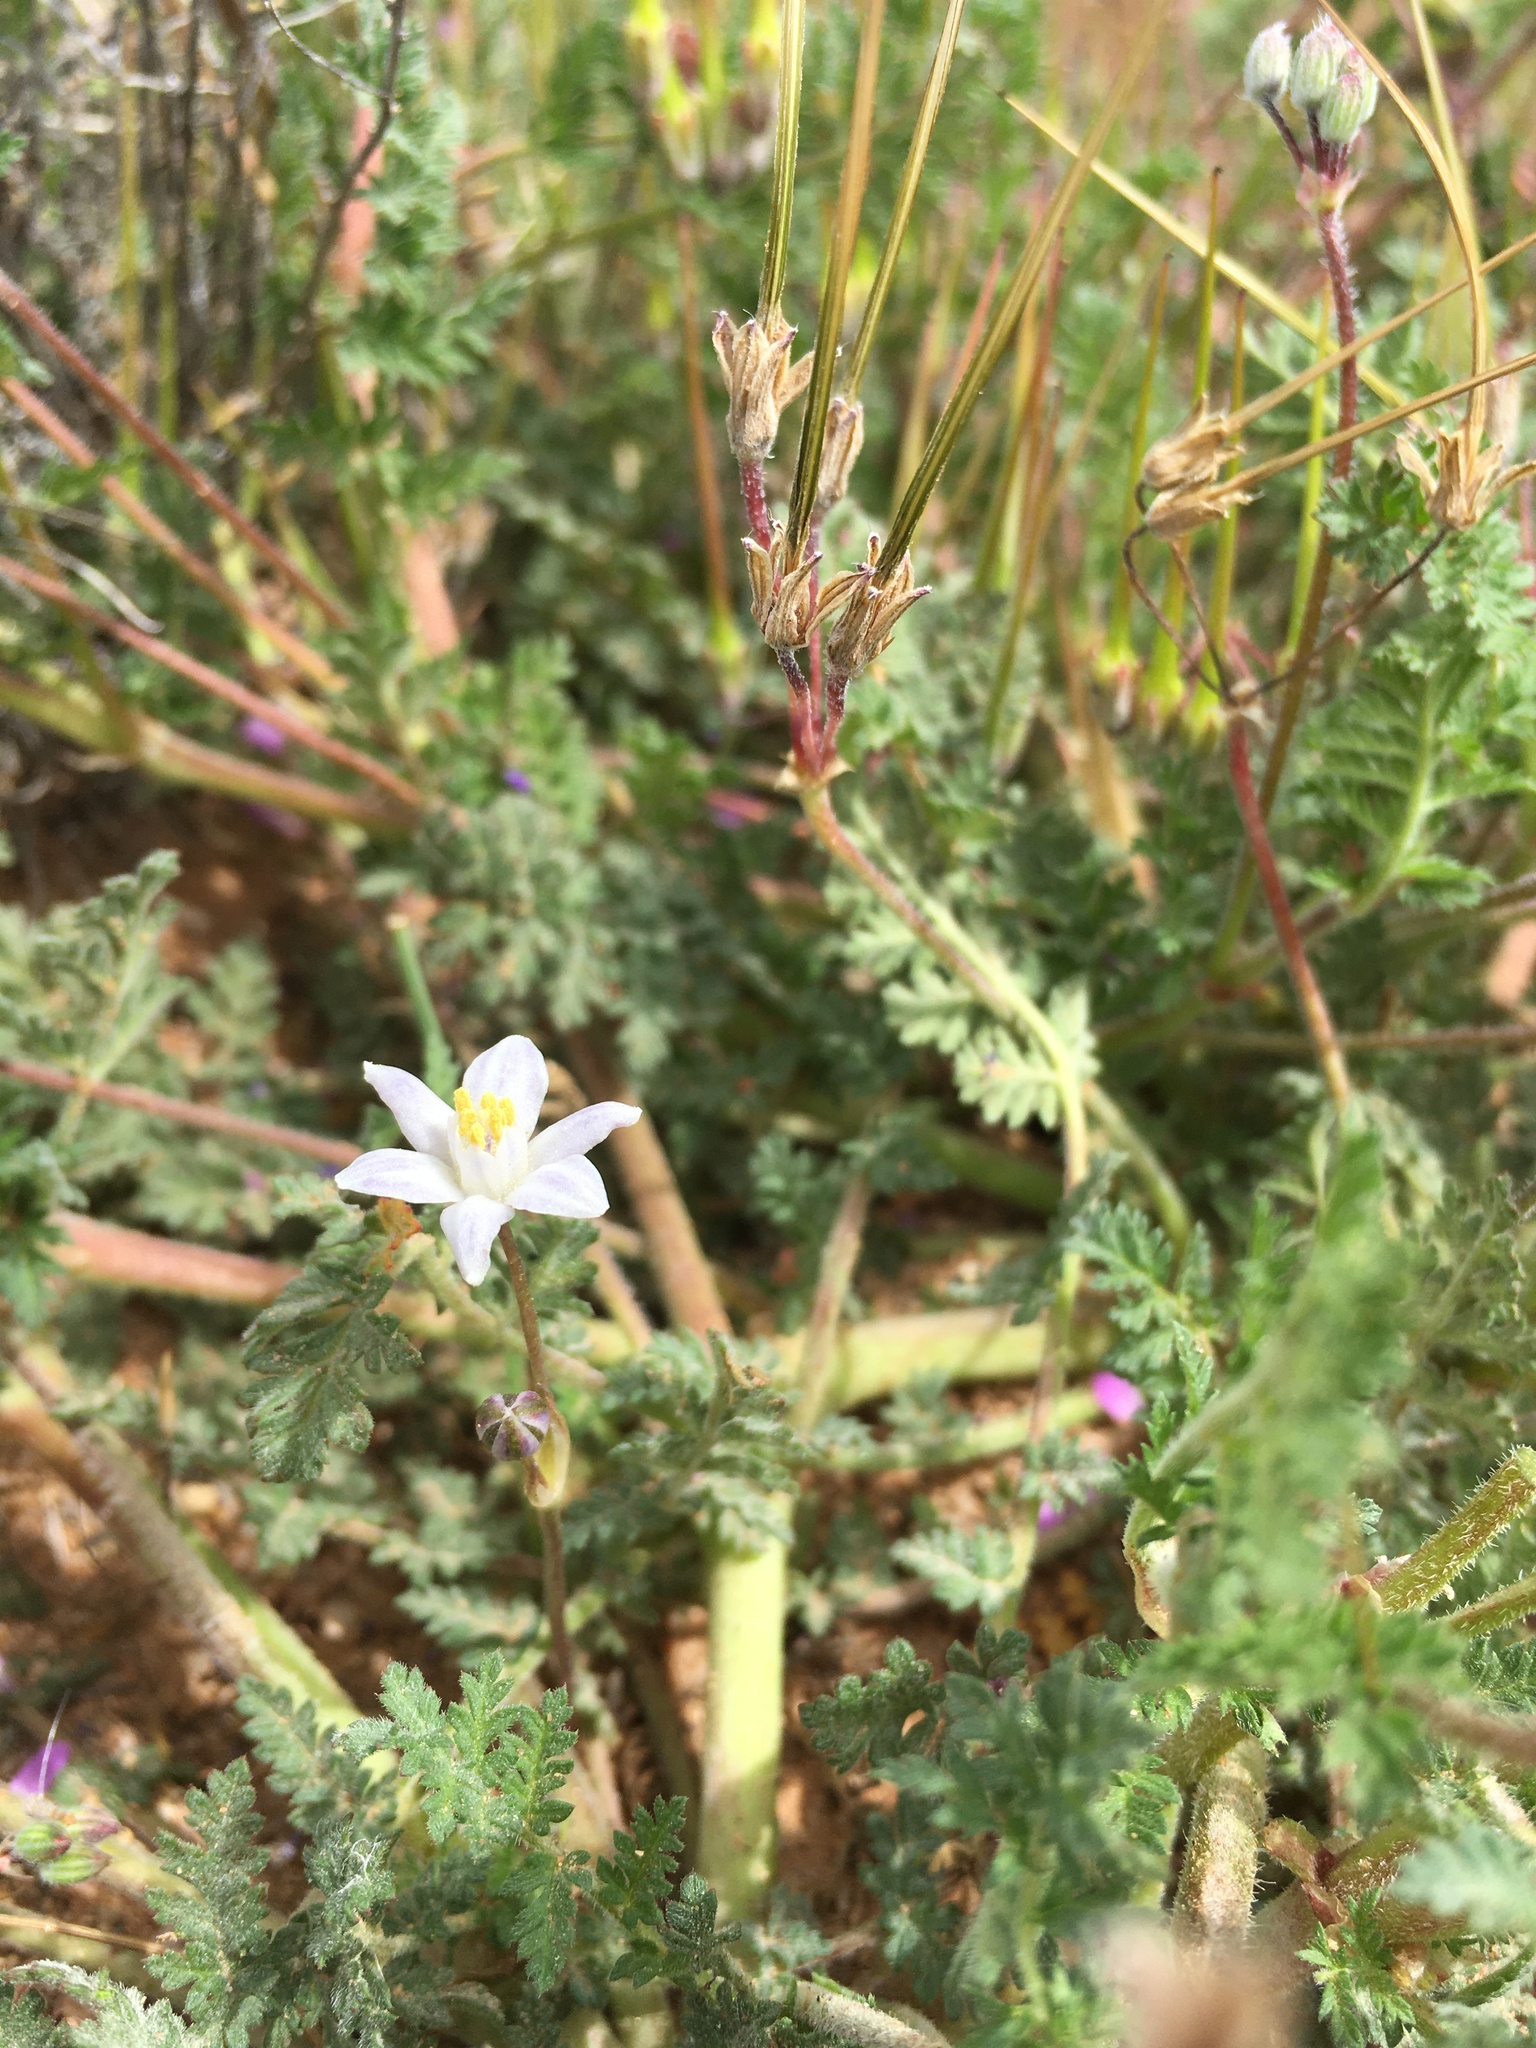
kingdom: Plantae
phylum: Tracheophyta
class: Liliopsida
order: Asparagales
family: Asparagaceae
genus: Muilla
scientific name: Muilla lordsburgana
